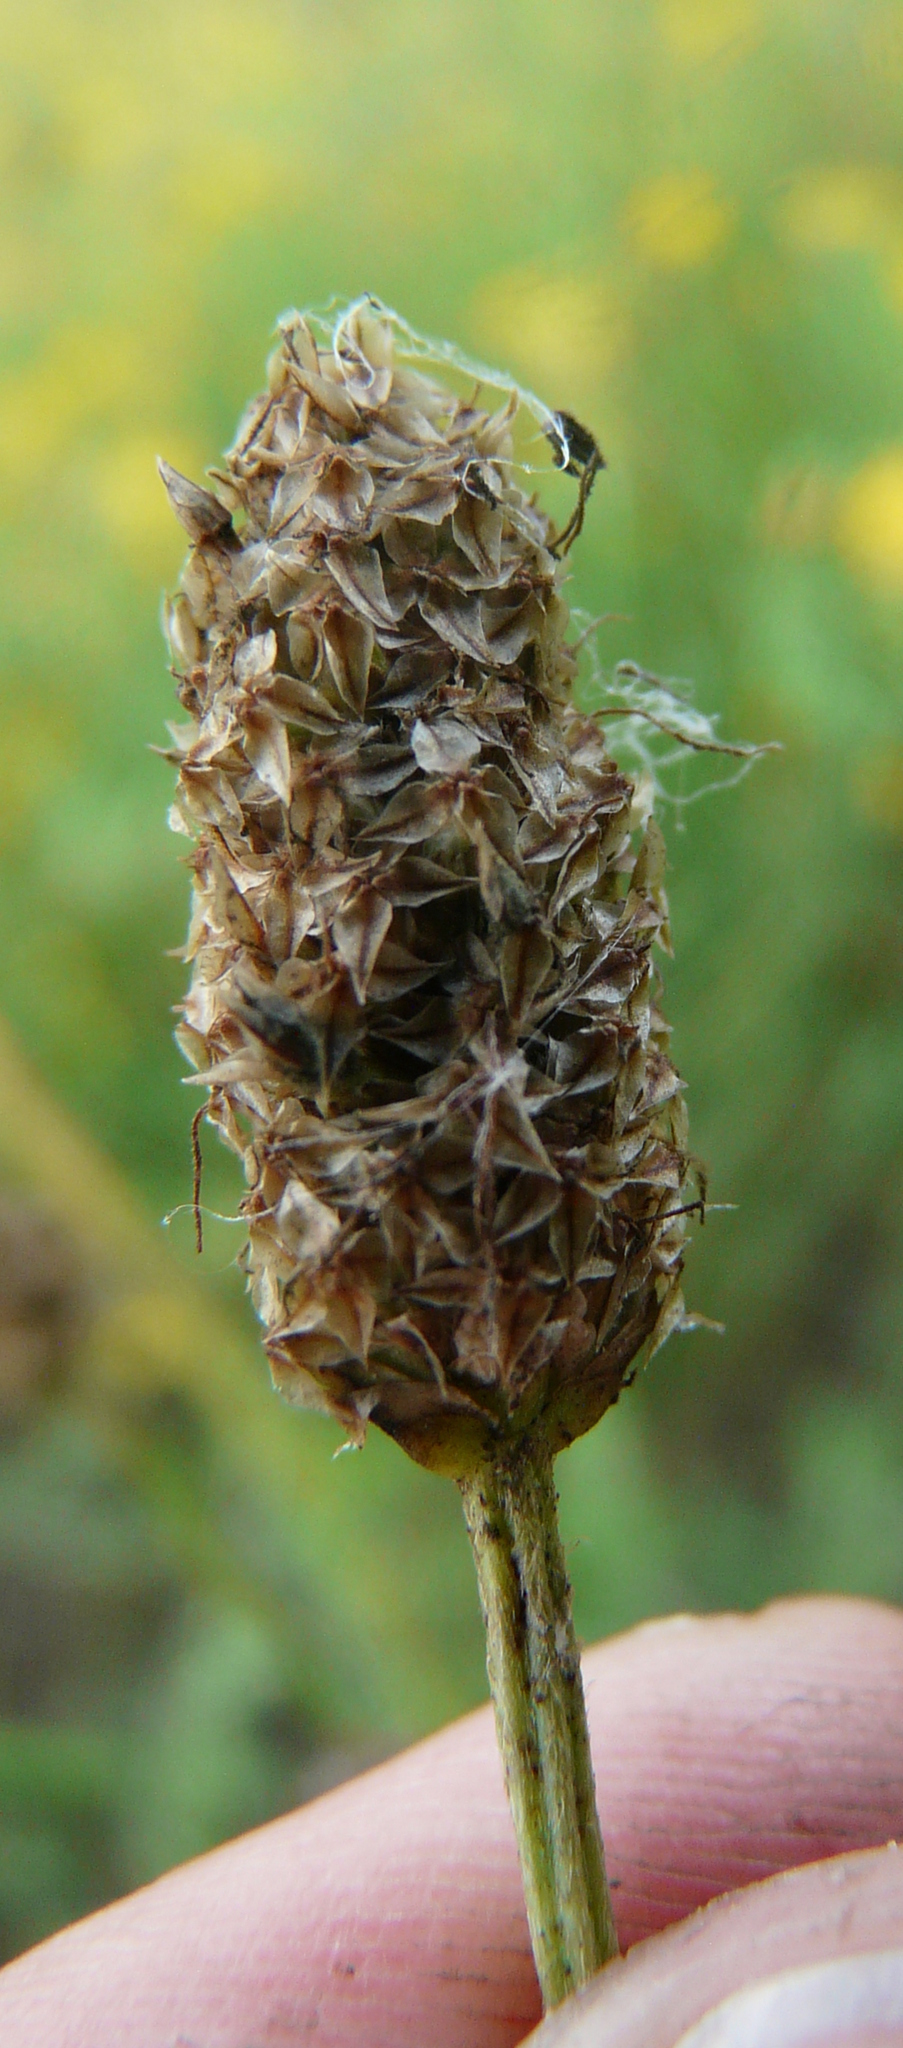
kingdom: Plantae
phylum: Tracheophyta
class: Magnoliopsida
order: Lamiales
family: Plantaginaceae
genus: Plantago
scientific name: Plantago lanceolata
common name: Ribwort plantain
